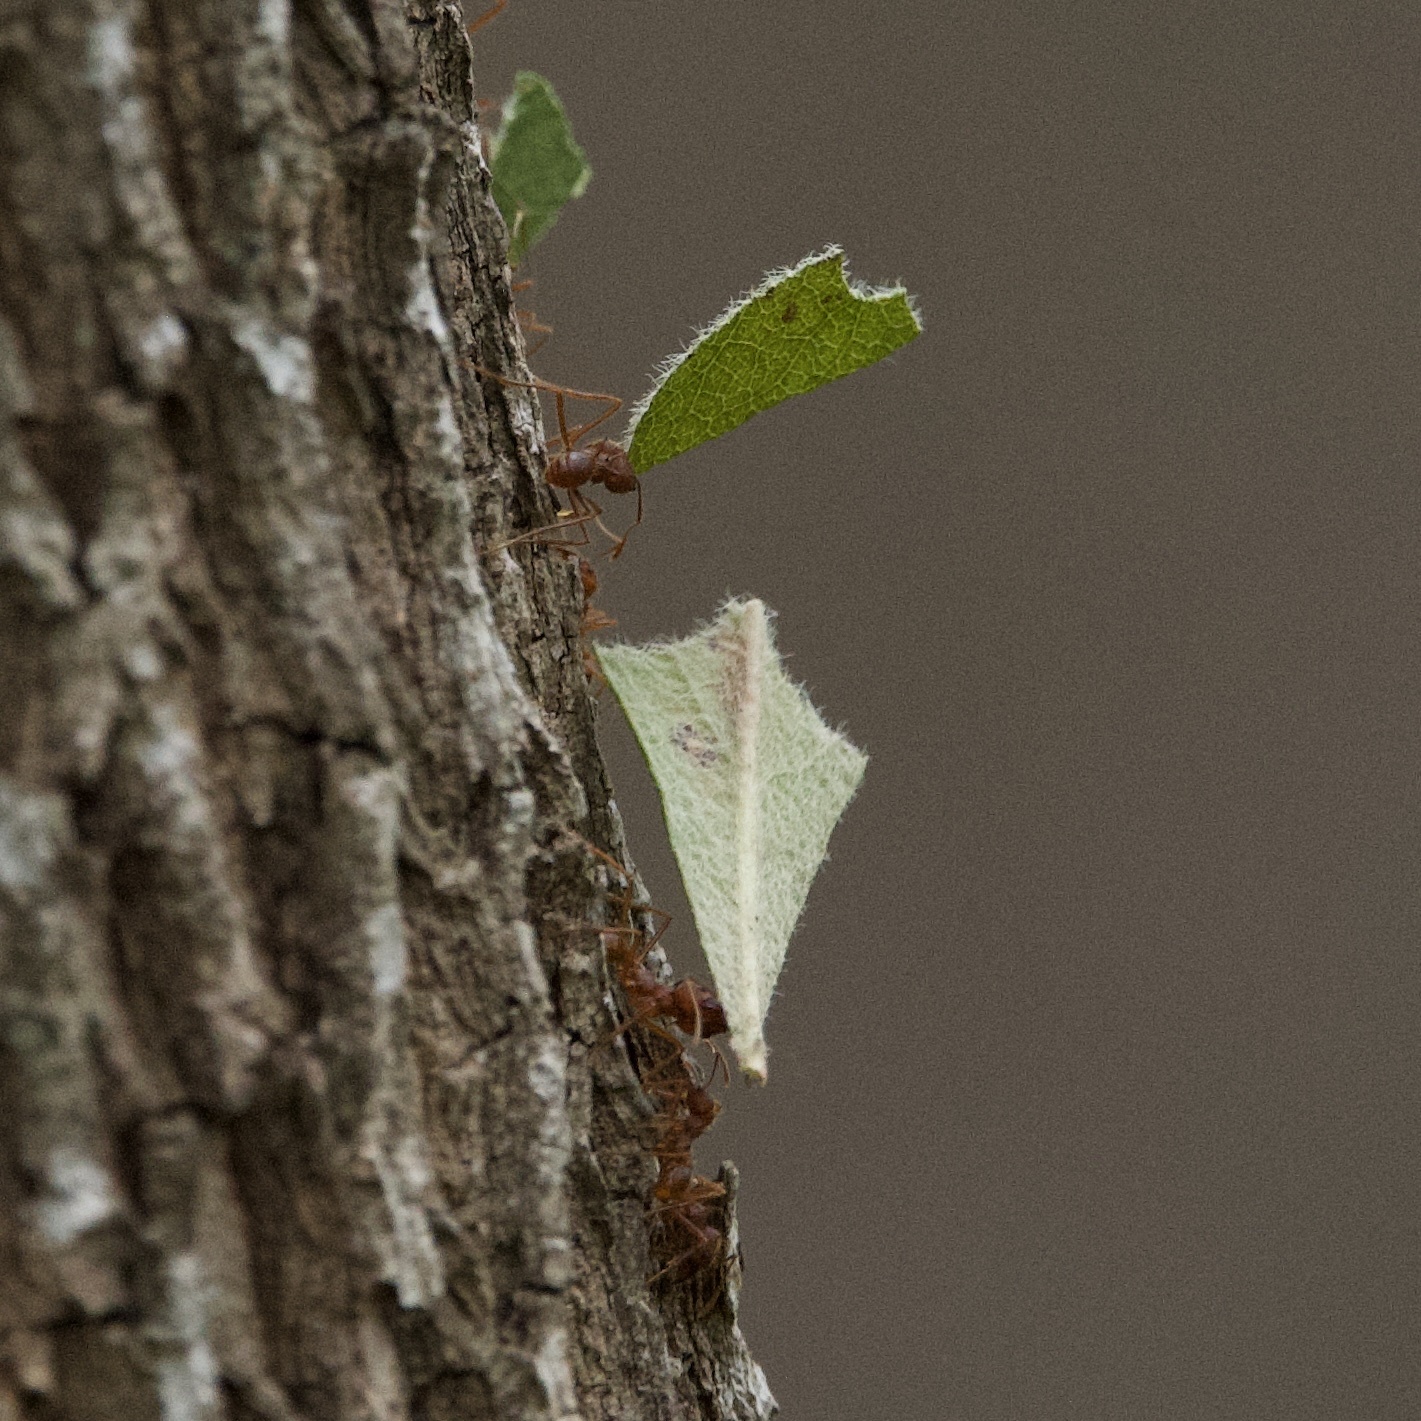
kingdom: Animalia
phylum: Arthropoda
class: Insecta
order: Hymenoptera
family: Formicidae
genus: Atta
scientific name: Atta texana
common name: Texas leafcutting ant
